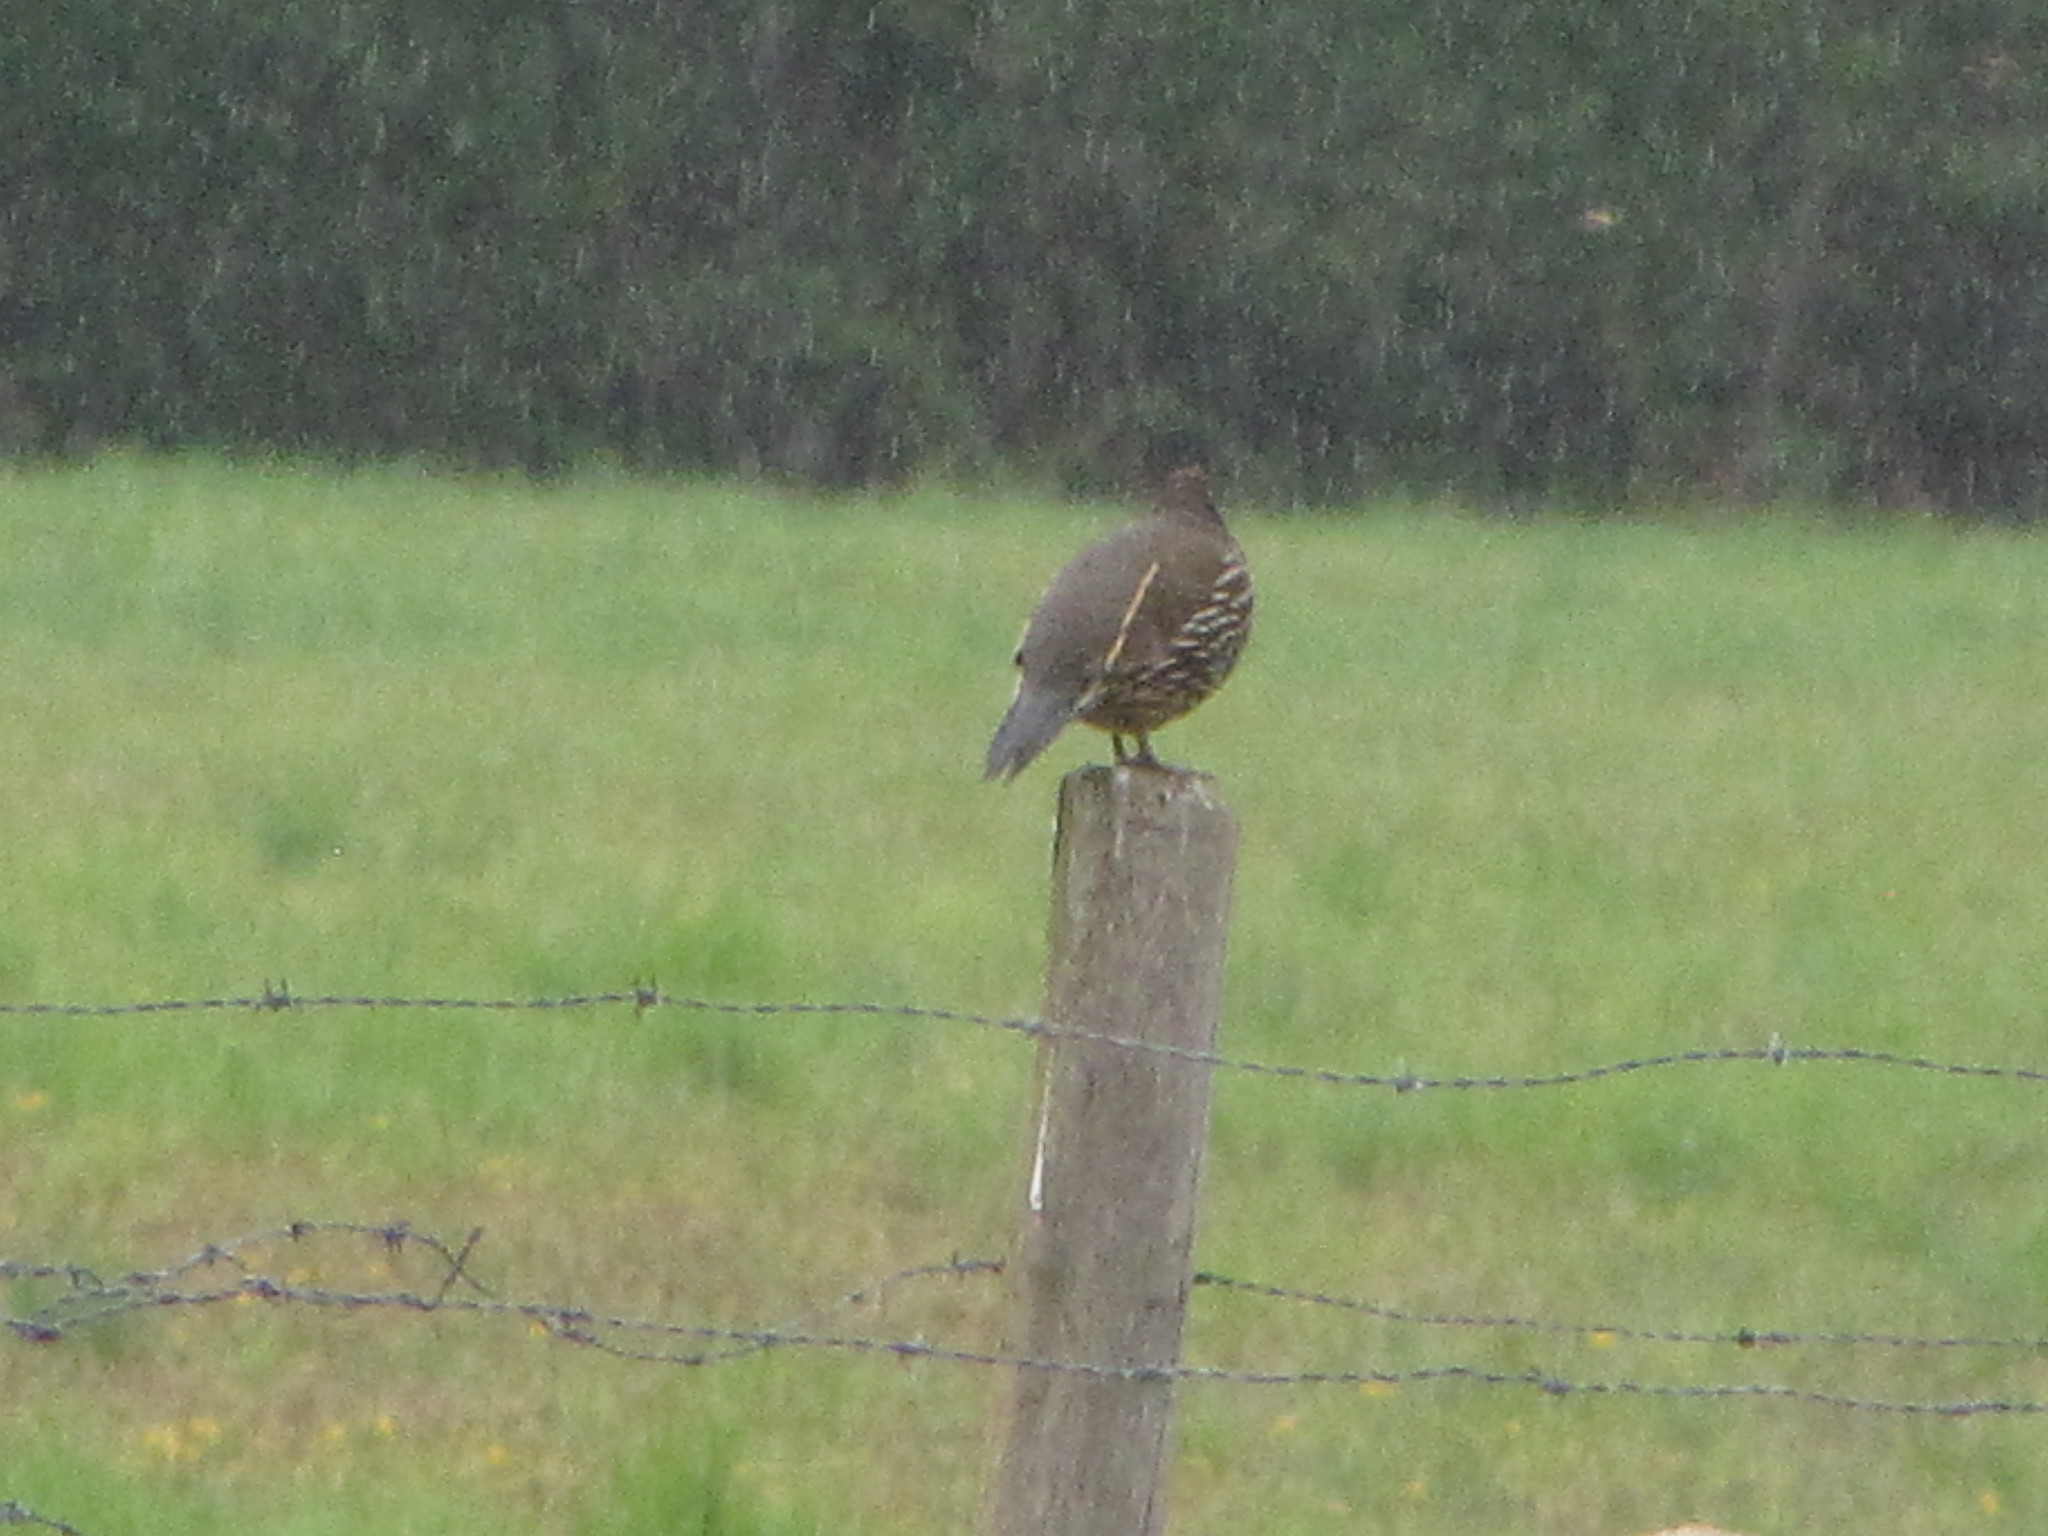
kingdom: Animalia
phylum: Chordata
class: Aves
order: Galliformes
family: Odontophoridae
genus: Callipepla
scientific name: Callipepla californica
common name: California quail
